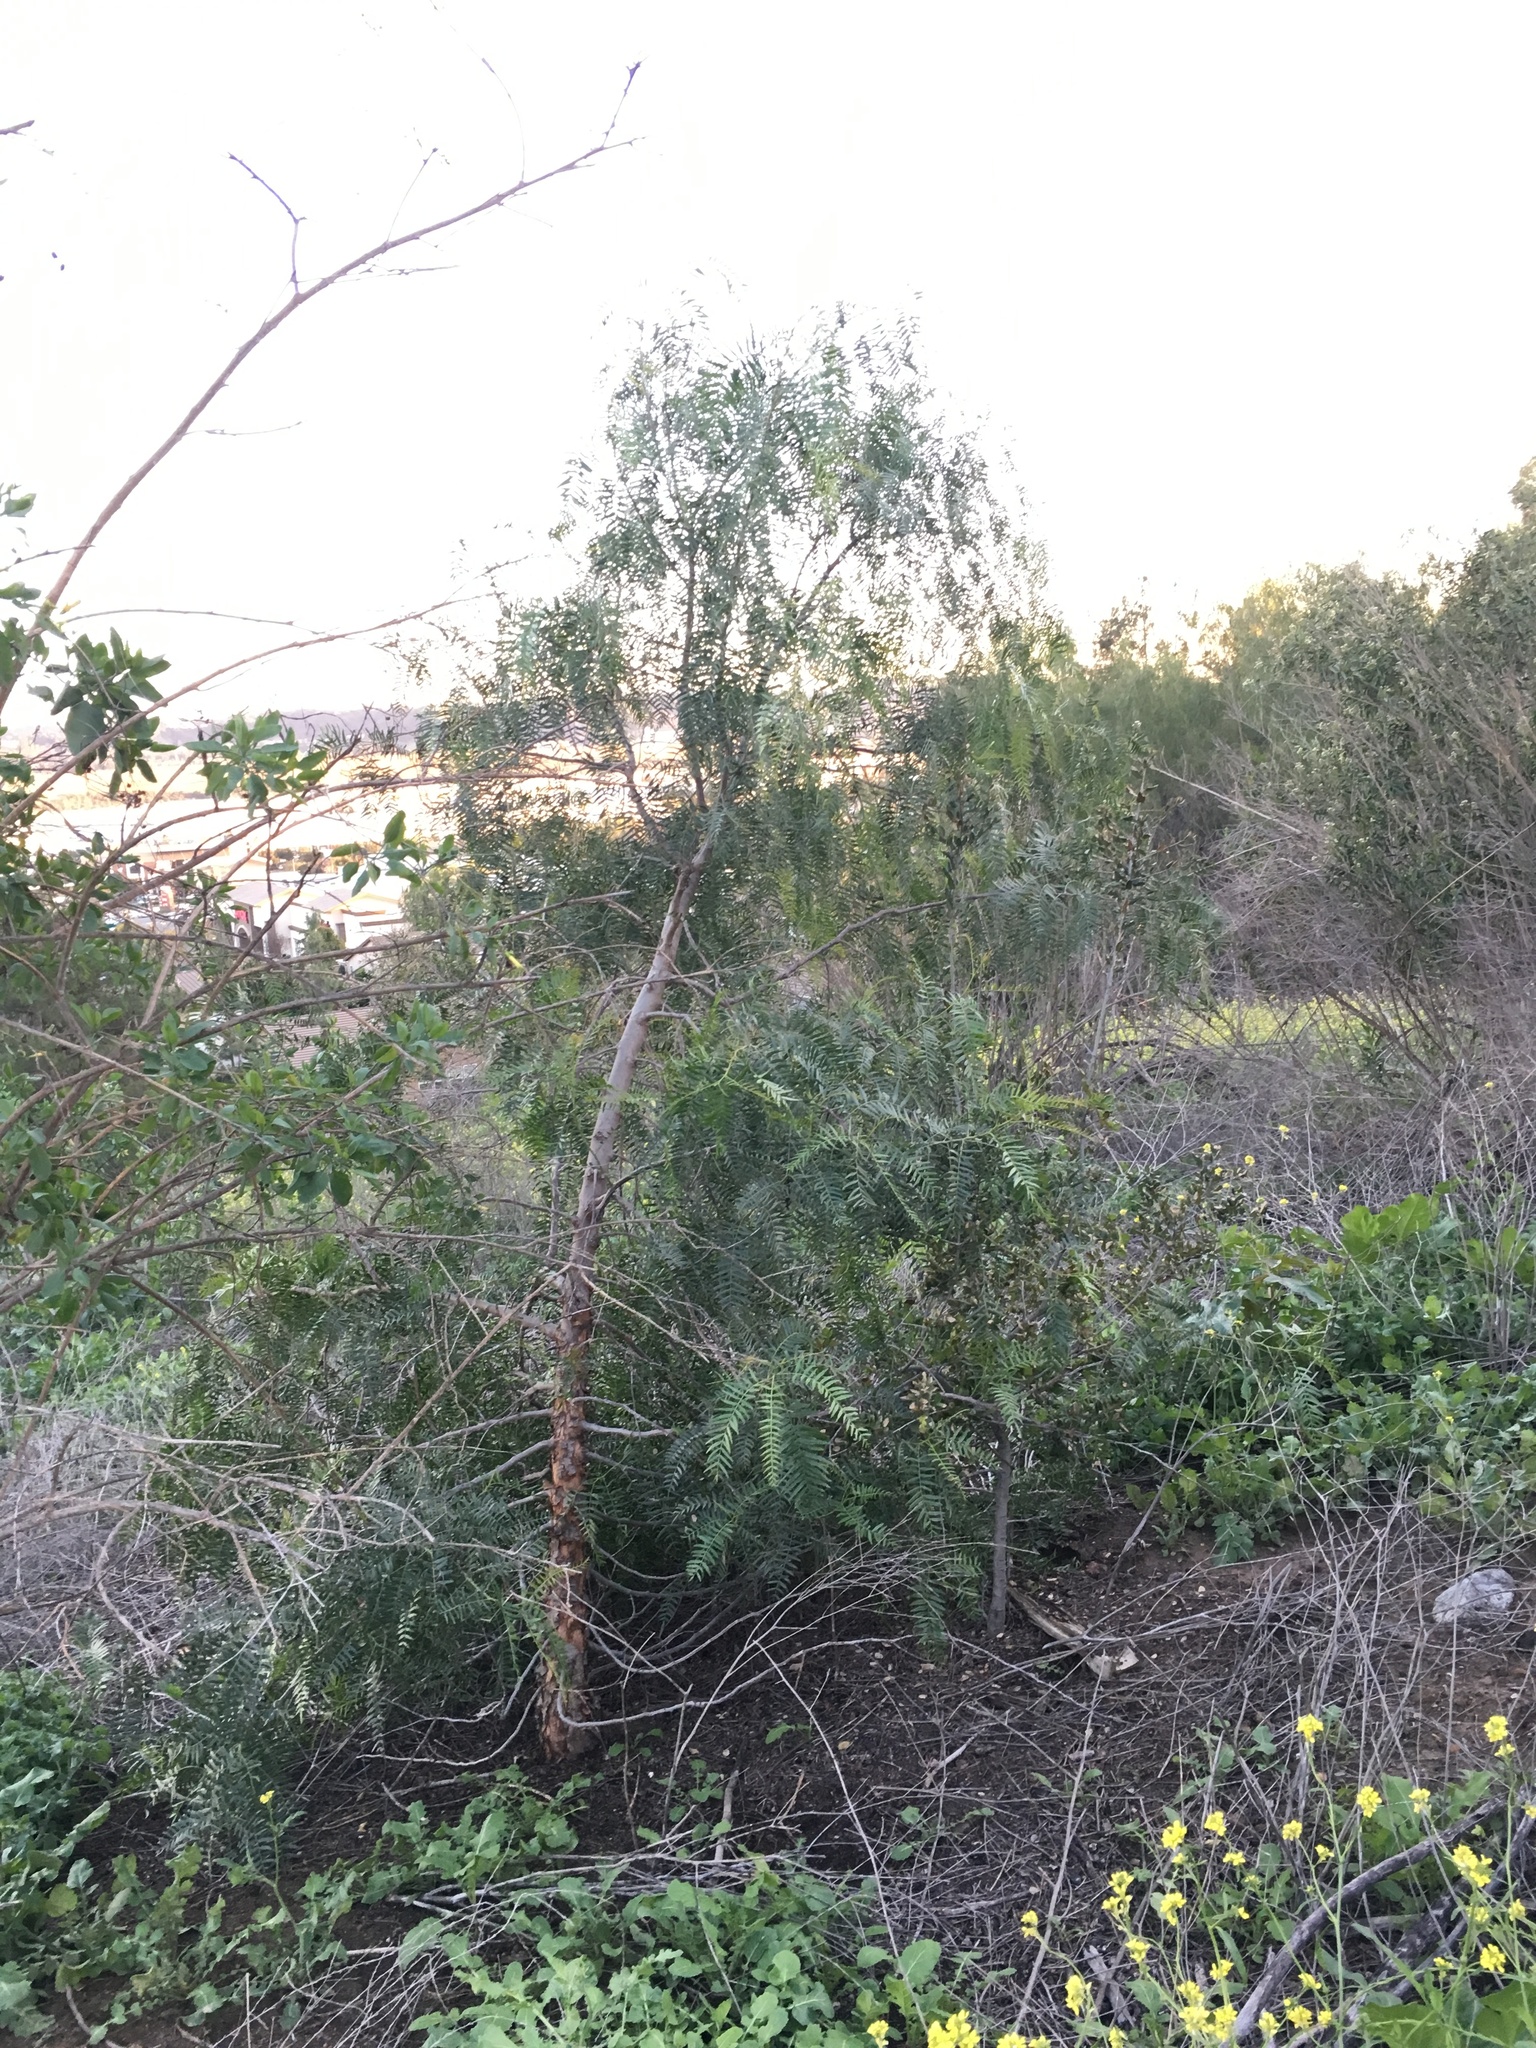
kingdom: Plantae
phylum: Tracheophyta
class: Magnoliopsida
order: Sapindales
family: Anacardiaceae
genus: Schinus
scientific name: Schinus molle
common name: Peruvian peppertree
